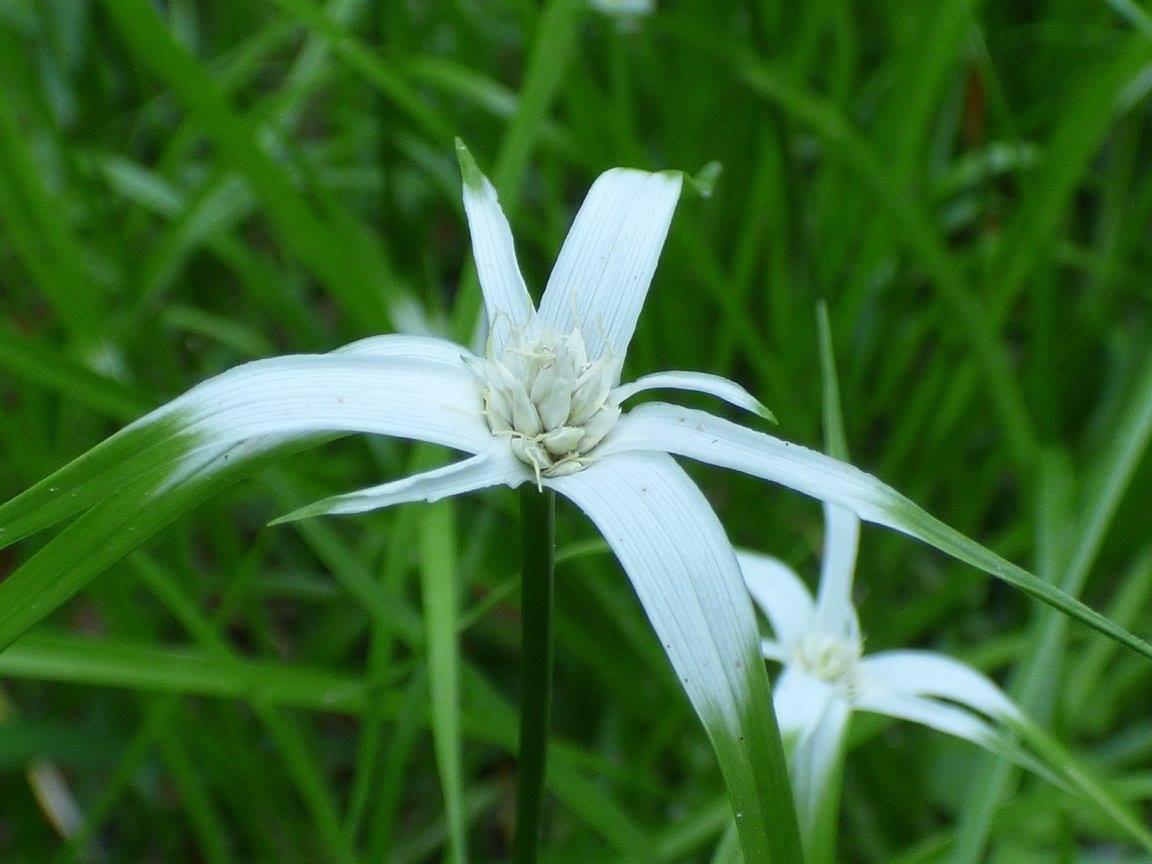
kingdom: Plantae
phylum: Tracheophyta
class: Liliopsida
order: Poales
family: Cyperaceae
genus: Rhynchospora
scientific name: Rhynchospora colorata
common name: Star sedge
